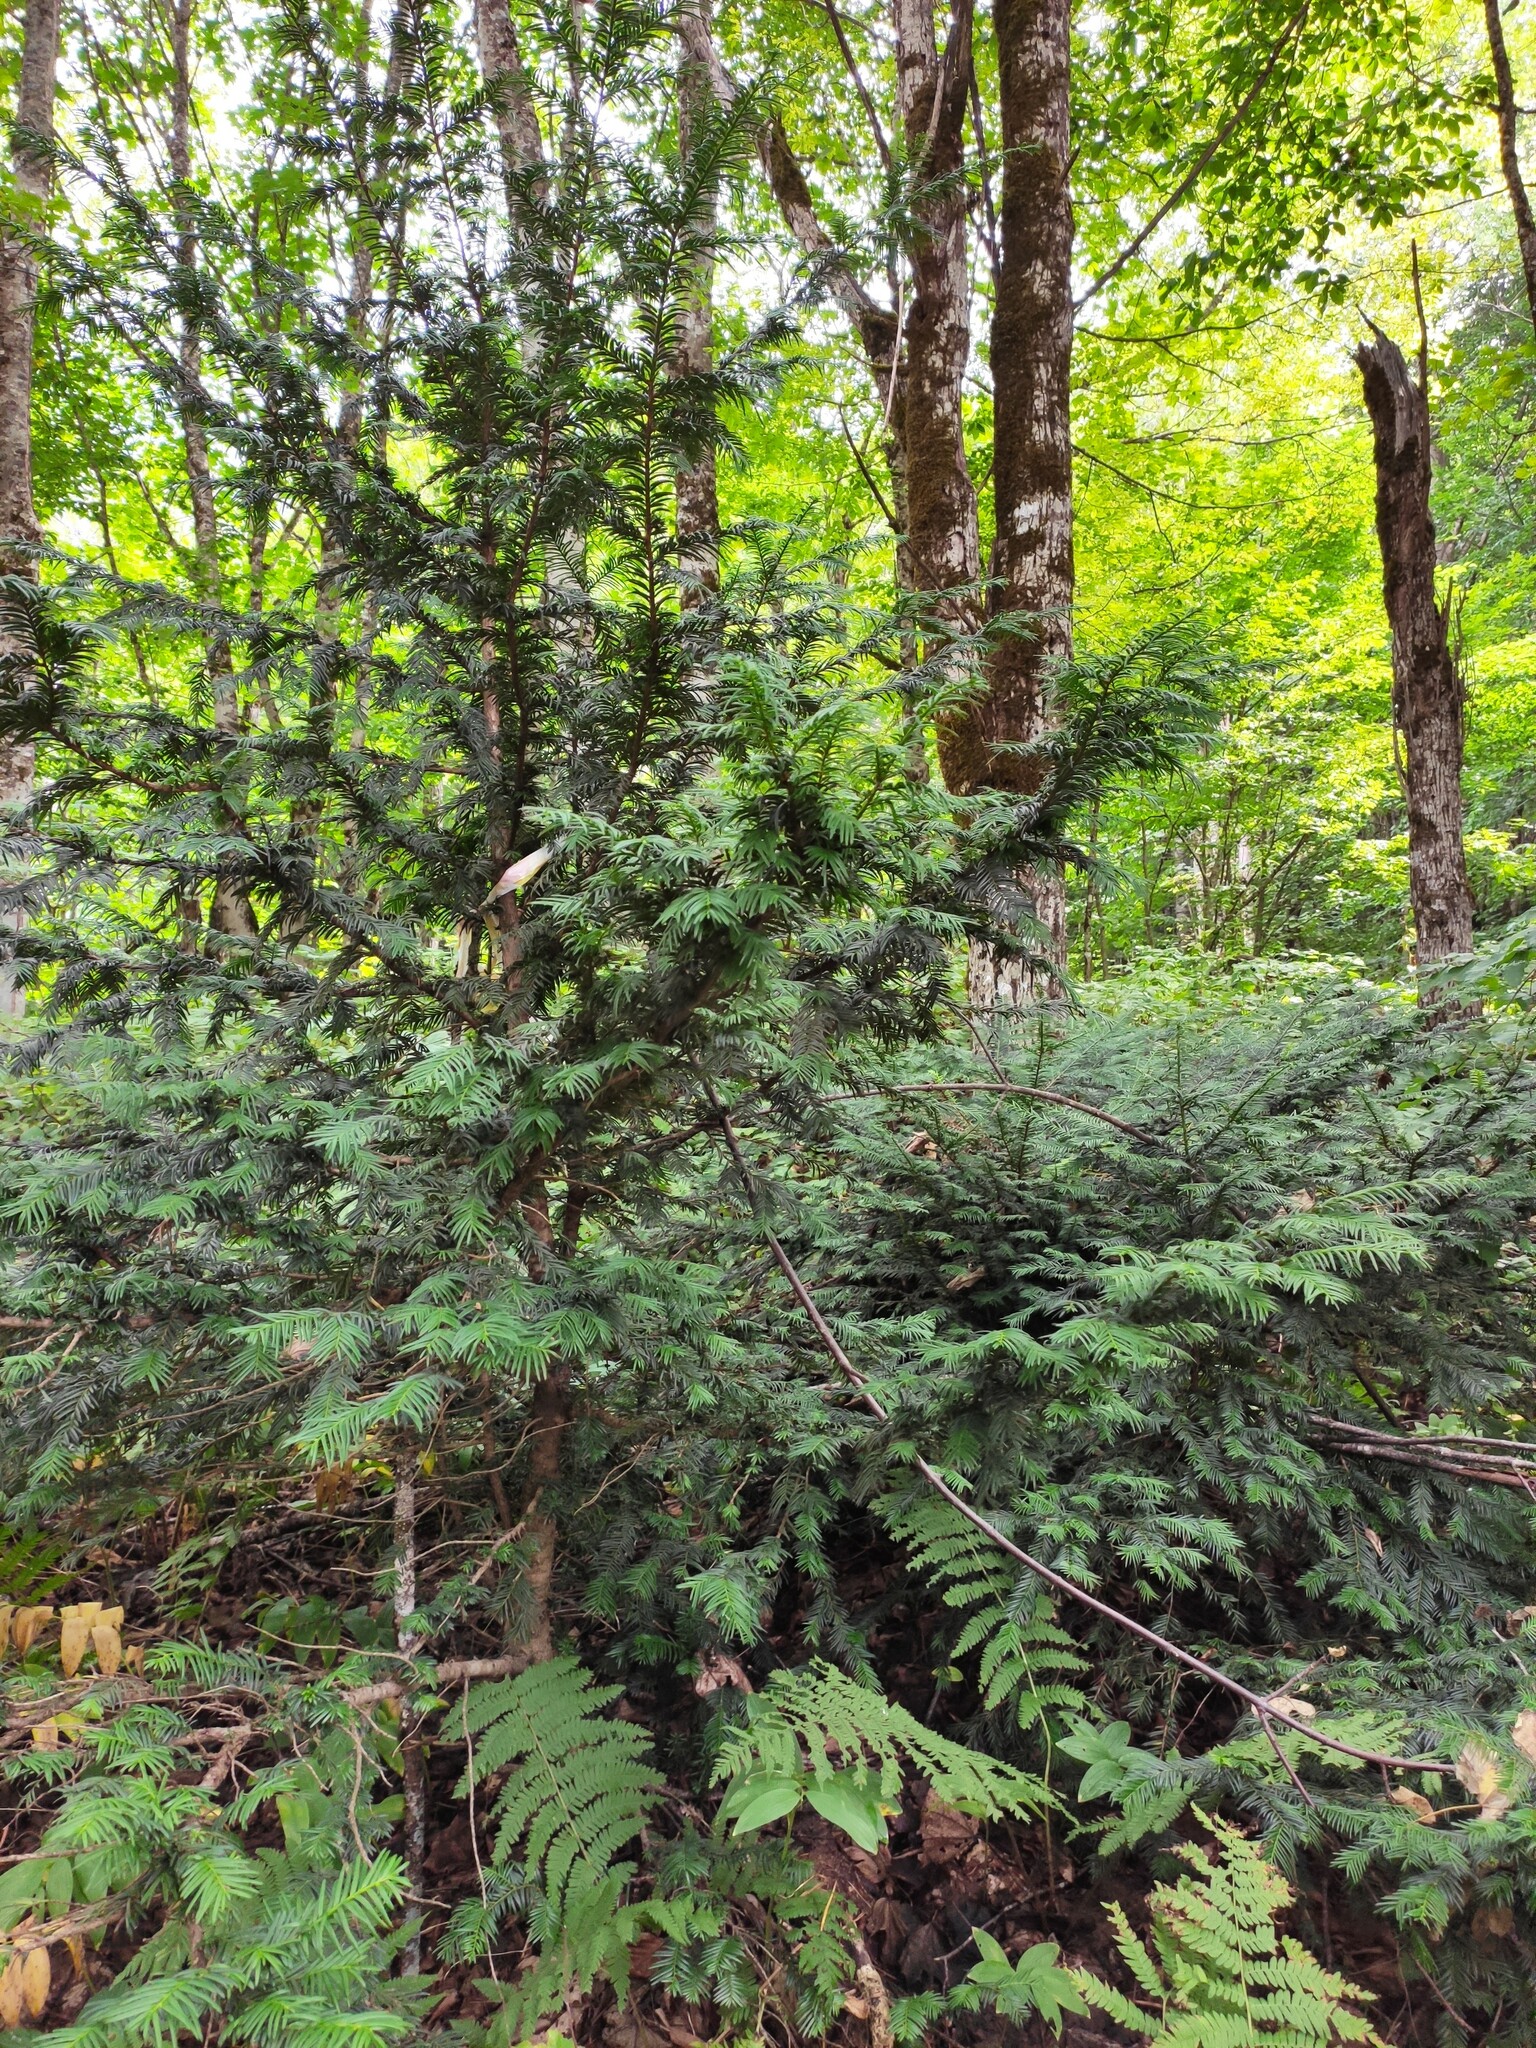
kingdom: Plantae
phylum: Tracheophyta
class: Pinopsida
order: Pinales
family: Taxaceae
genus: Taxus
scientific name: Taxus baccata
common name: Yew
